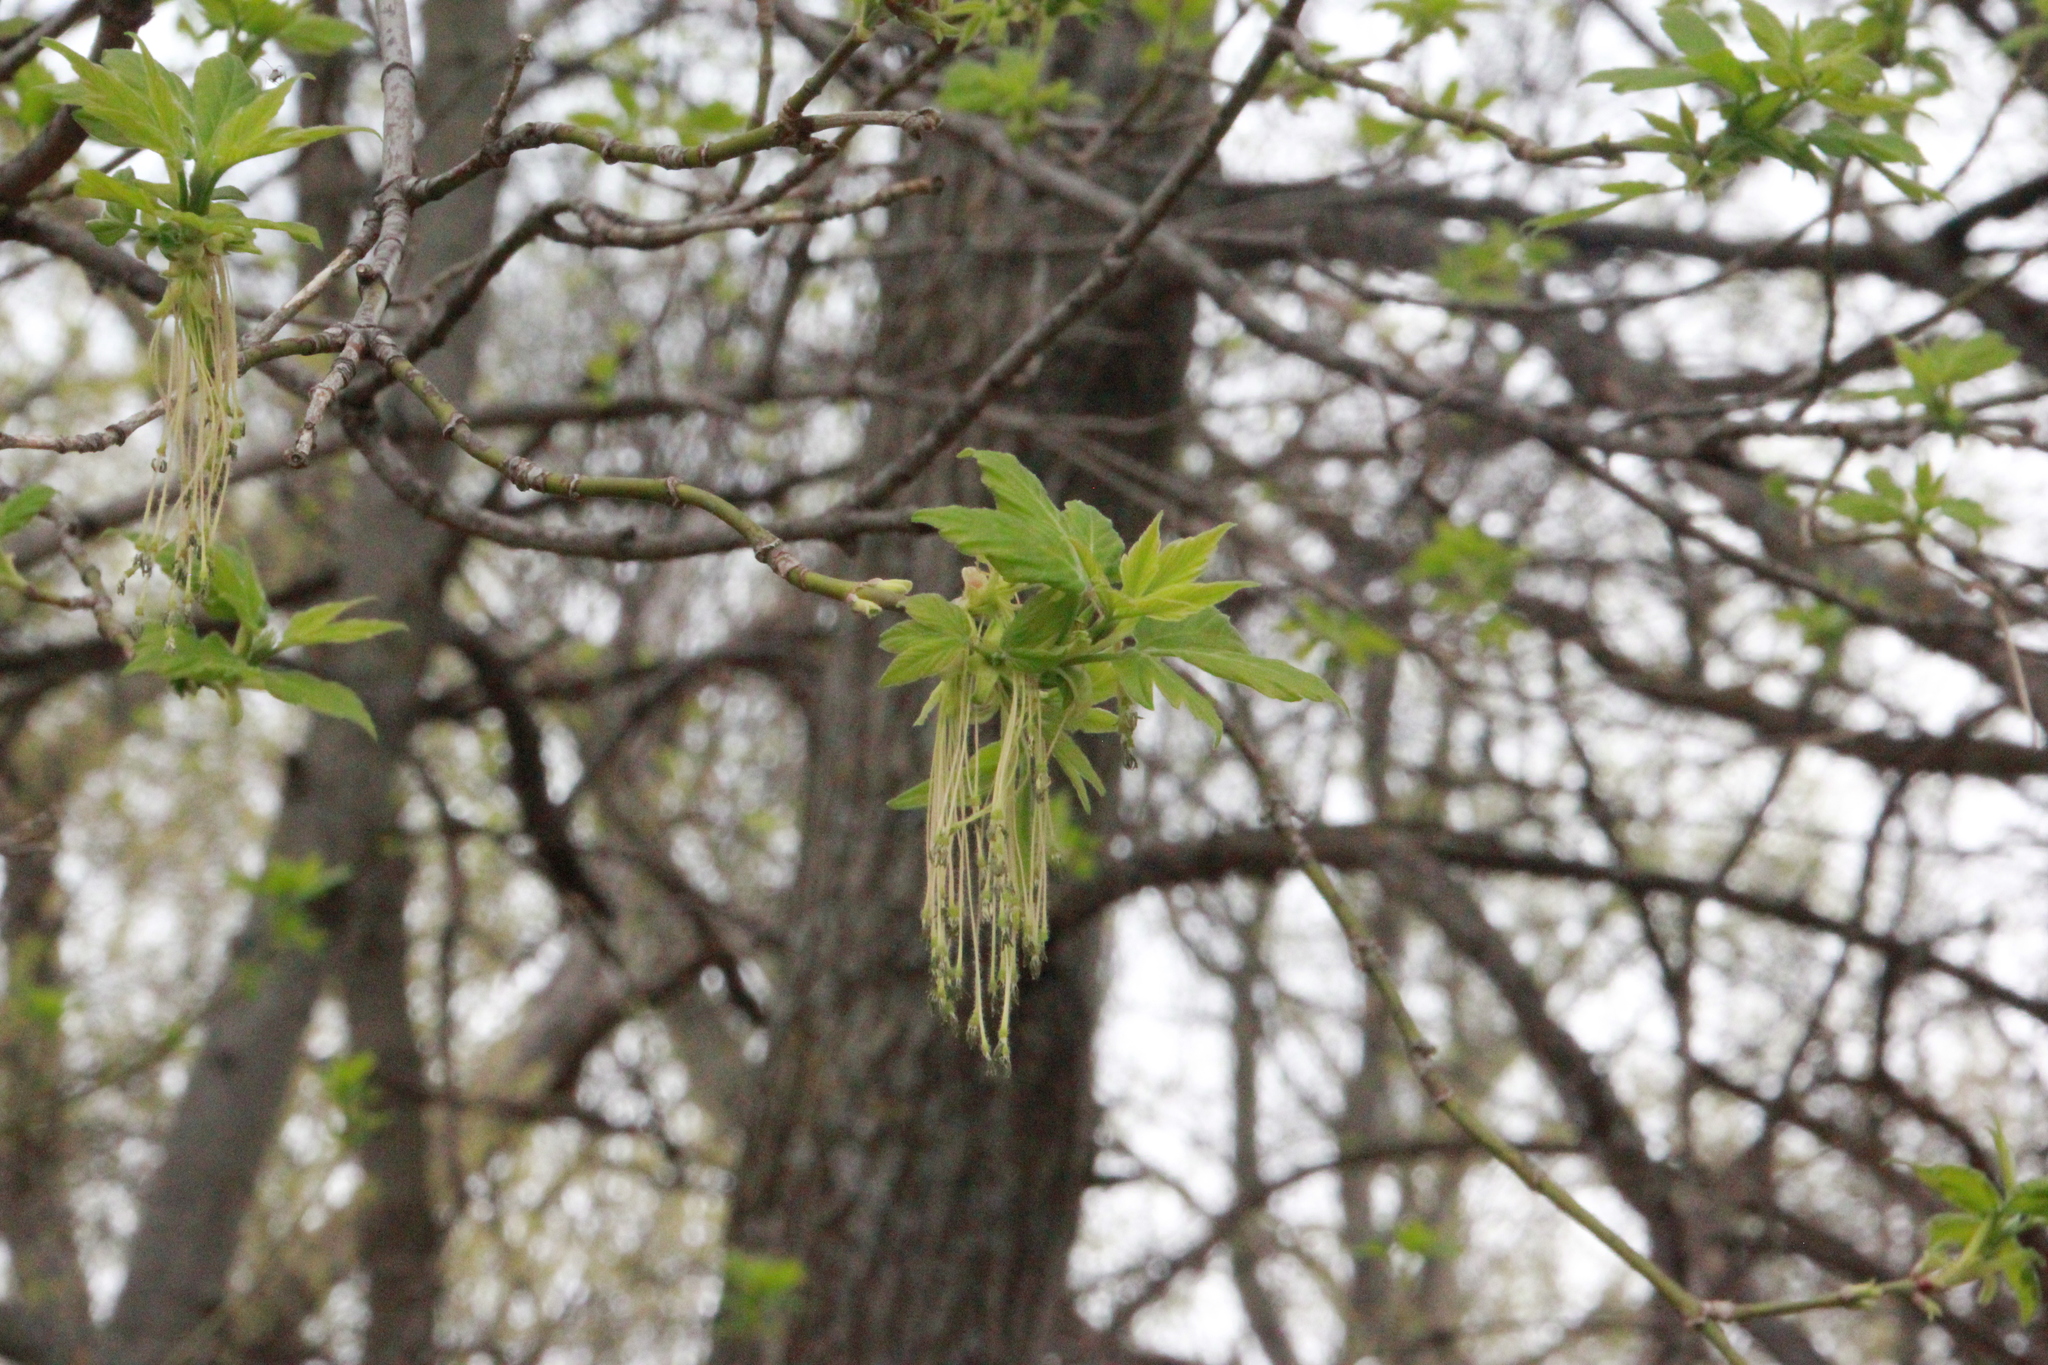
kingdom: Plantae
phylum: Tracheophyta
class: Magnoliopsida
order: Sapindales
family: Sapindaceae
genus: Acer
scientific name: Acer negundo
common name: Ashleaf maple
